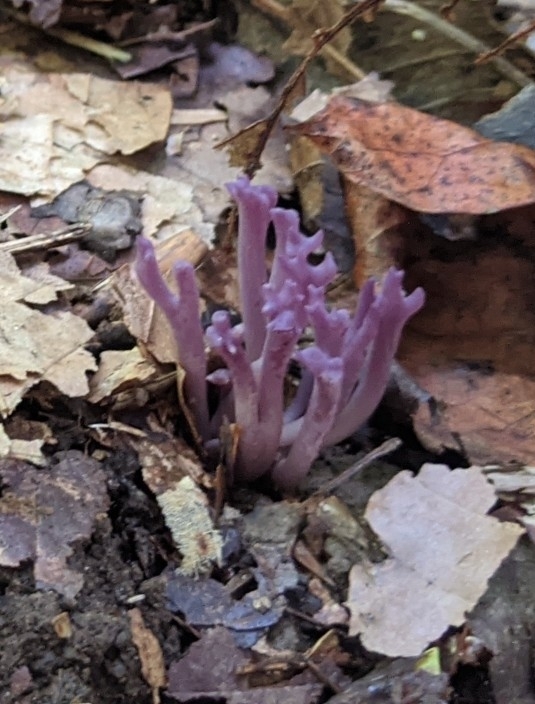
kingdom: Fungi
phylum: Basidiomycota
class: Agaricomycetes
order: Agaricales
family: Clavariaceae
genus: Clavaria
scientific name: Clavaria zollingeri
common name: Violet coral
